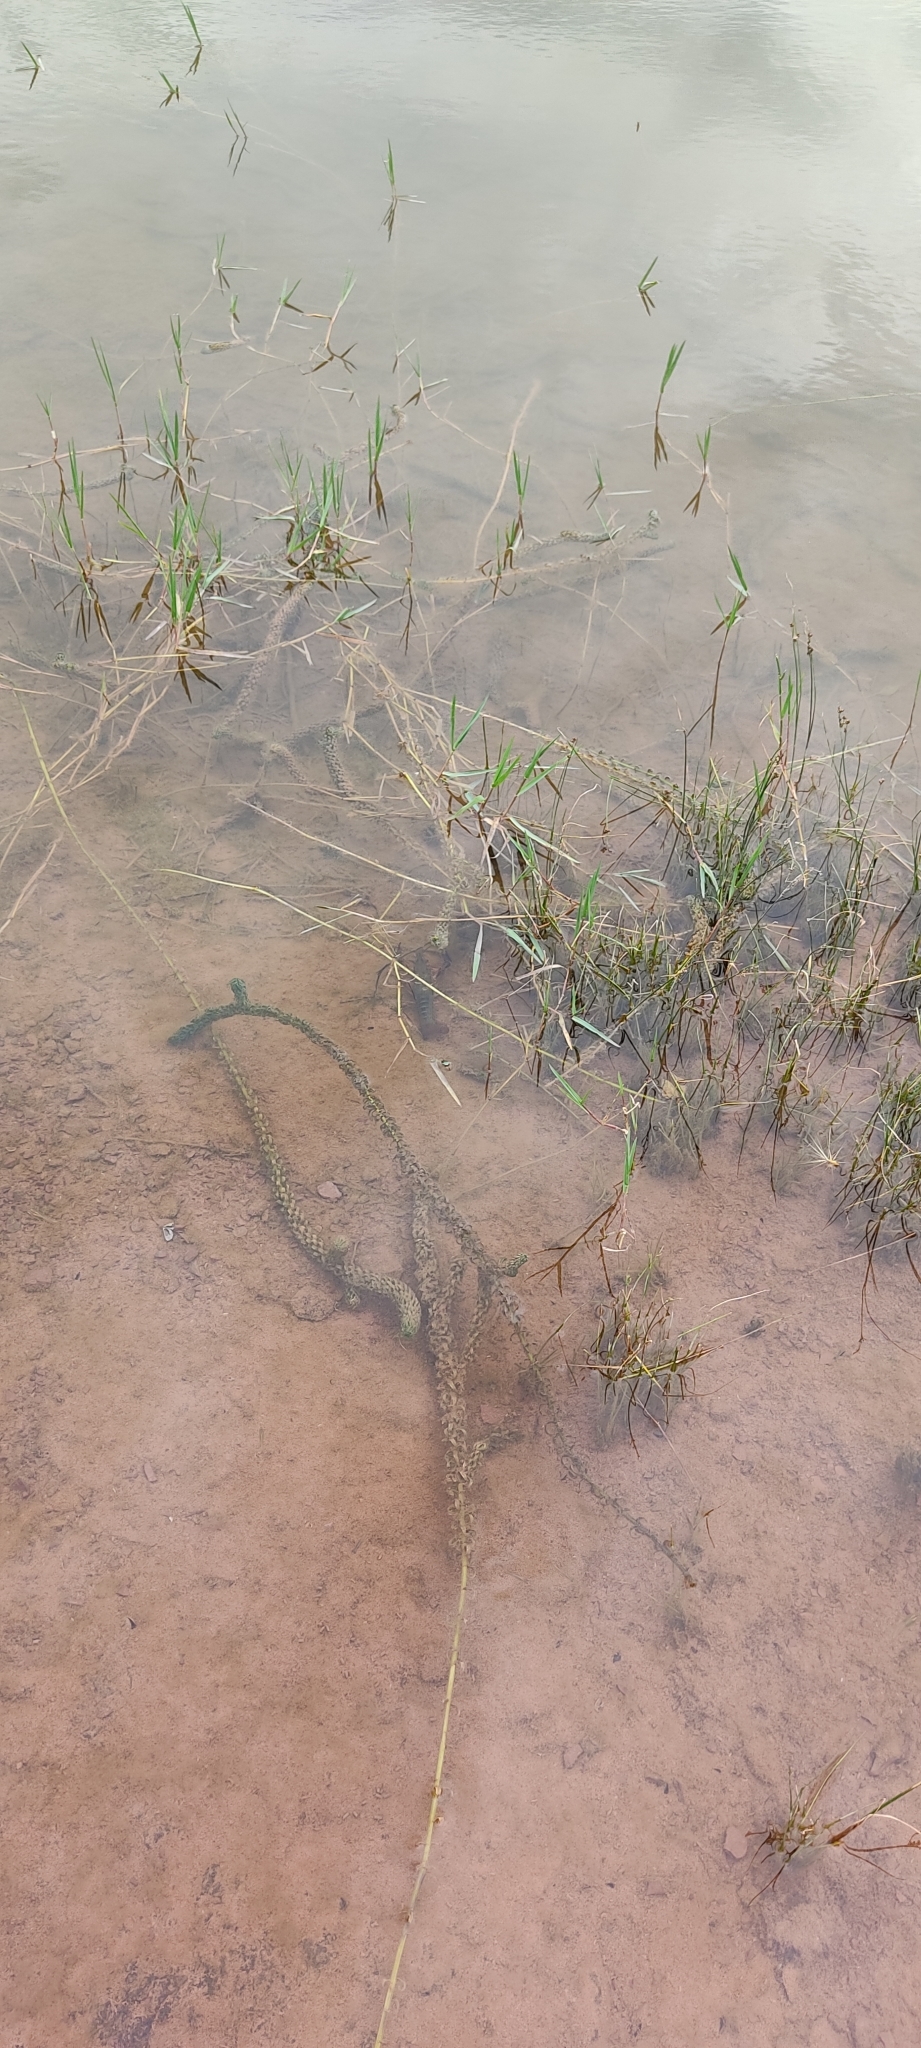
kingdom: Animalia
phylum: Arthropoda
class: Malacostraca
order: Decapoda
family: Cambaridae
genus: Procambarus
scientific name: Procambarus clarkii
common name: Red swamp crayfish
